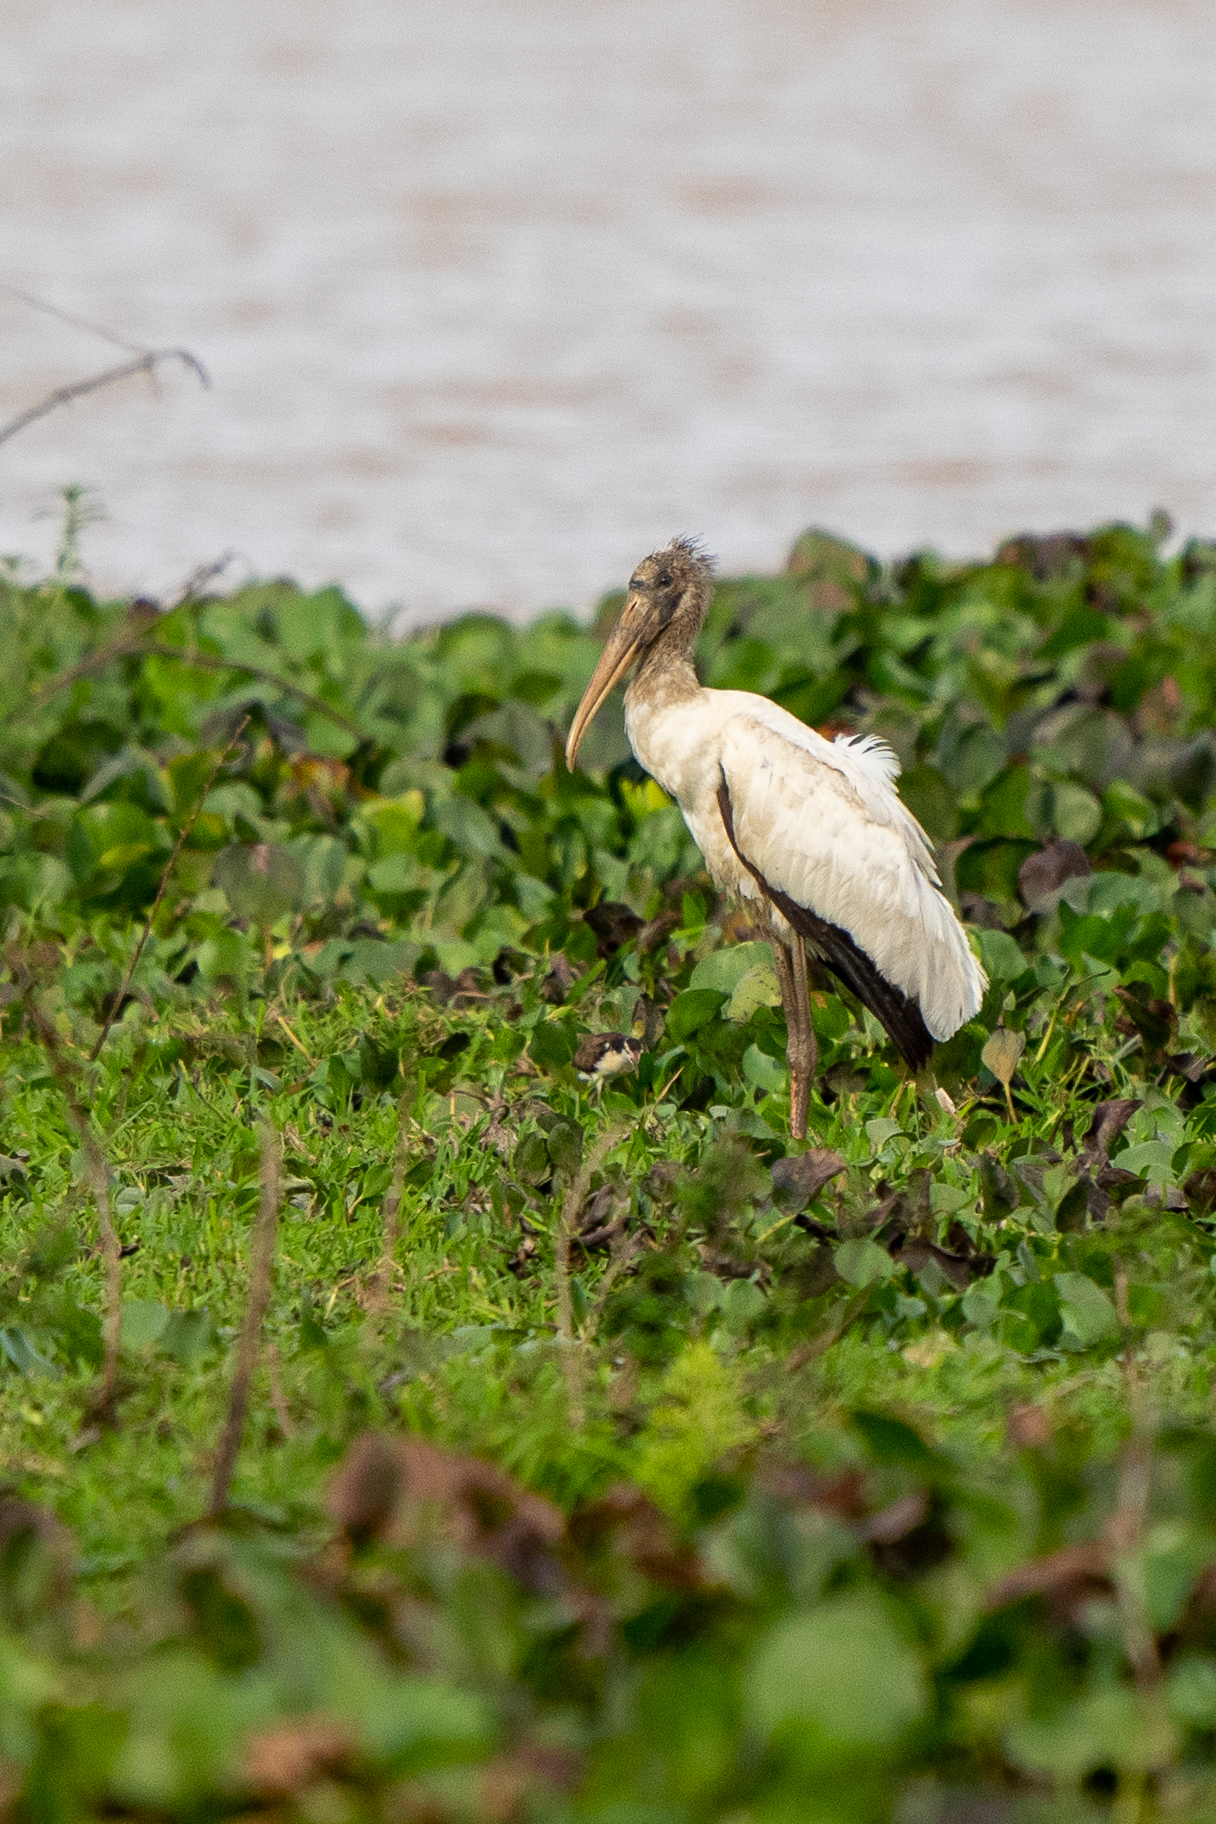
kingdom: Animalia
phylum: Chordata
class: Aves
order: Ciconiiformes
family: Ciconiidae
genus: Mycteria
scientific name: Mycteria americana
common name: Wood stork
